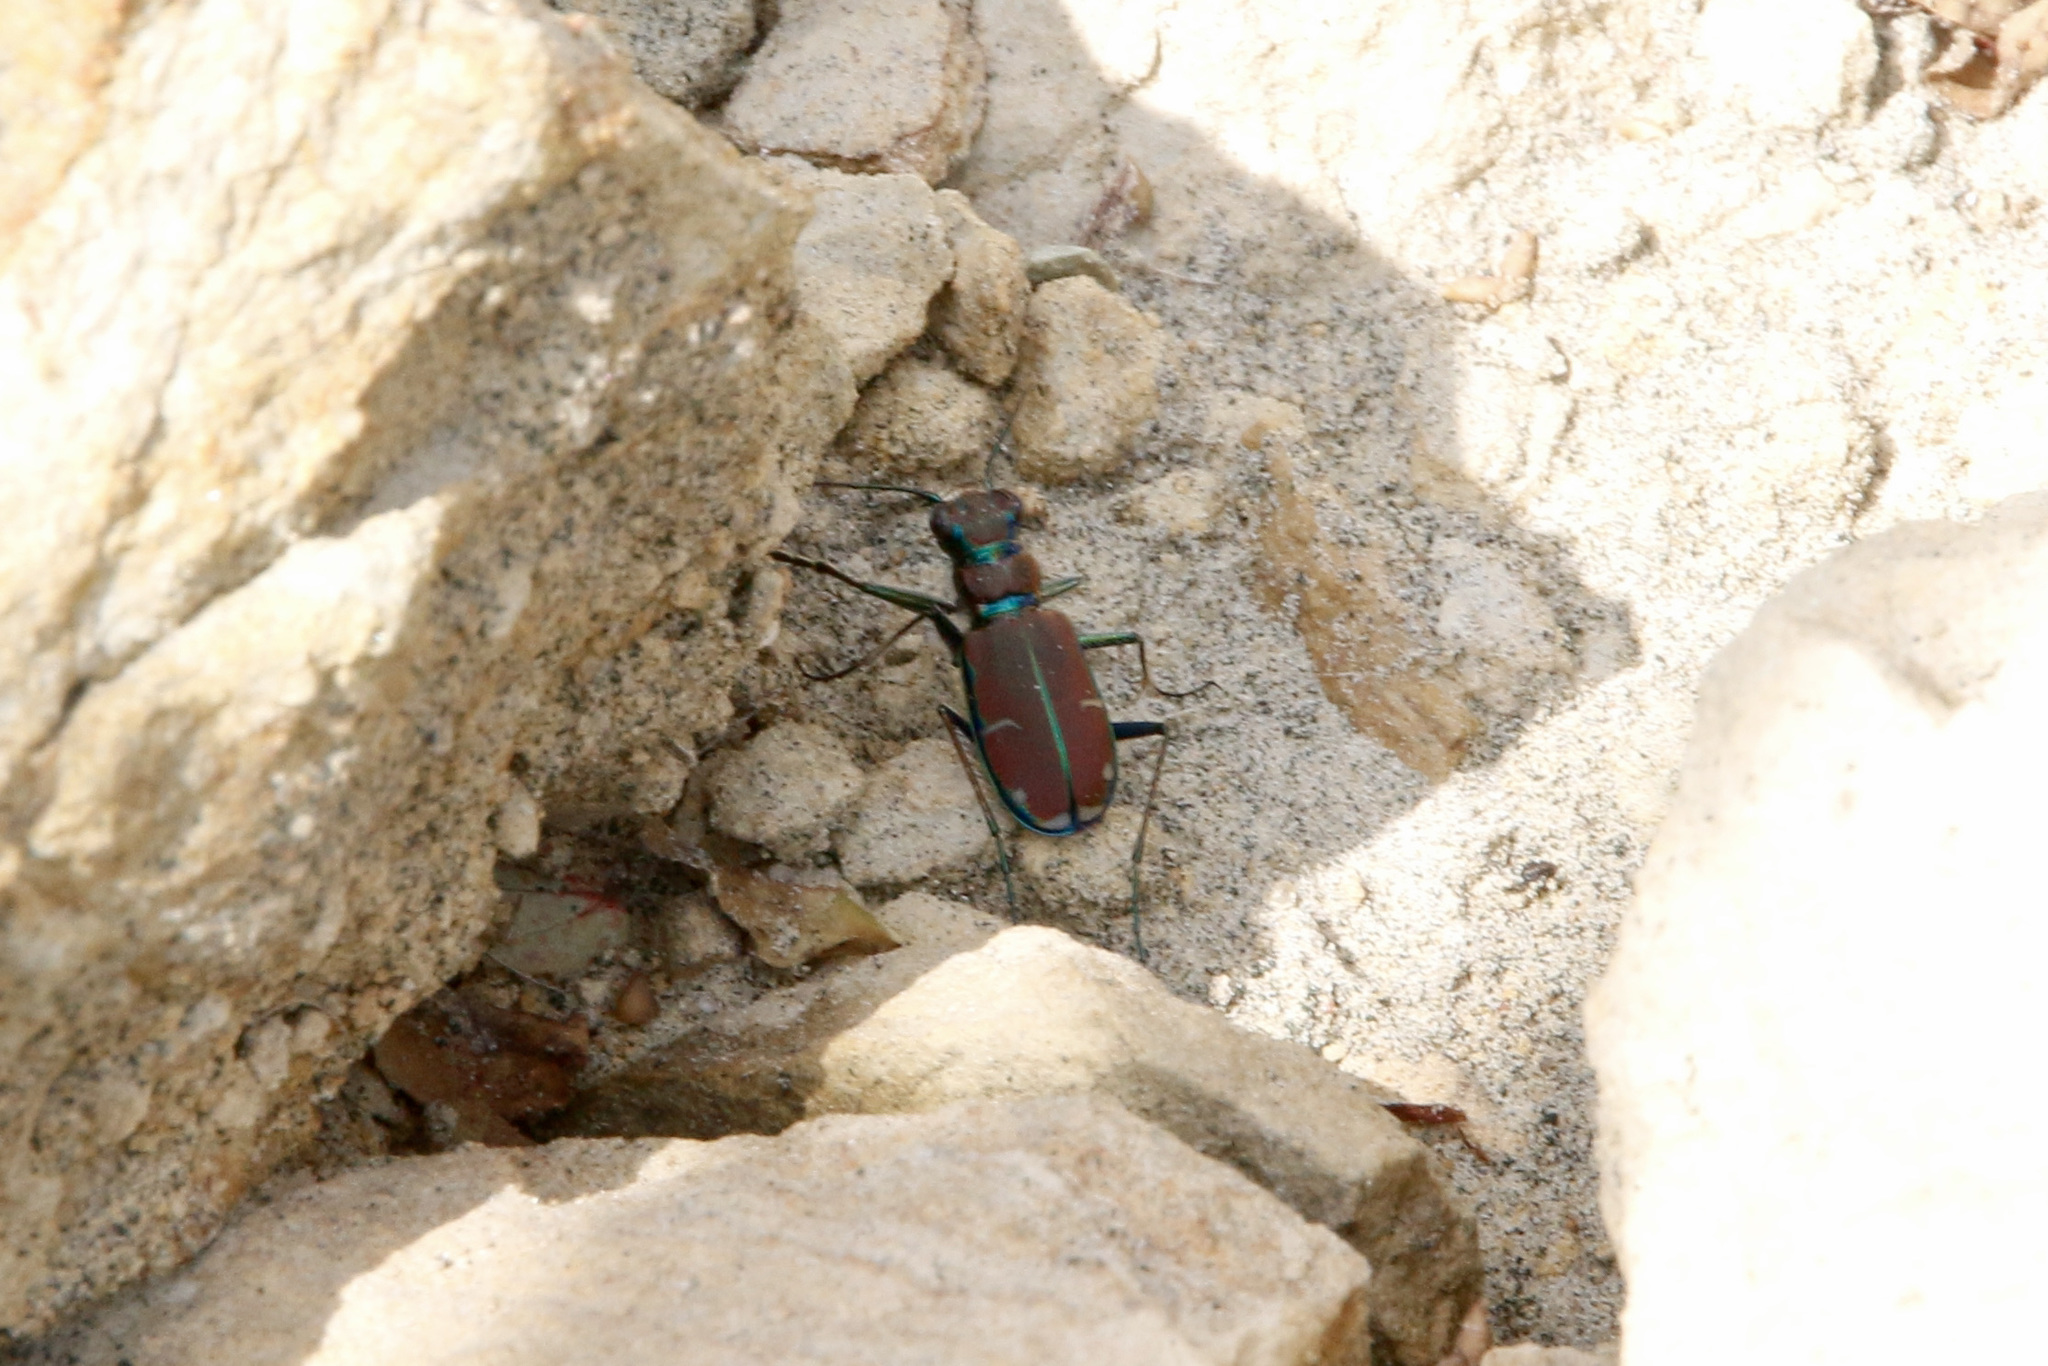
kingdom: Animalia
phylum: Arthropoda
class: Insecta
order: Coleoptera
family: Carabidae
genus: Cicindela
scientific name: Cicindela limbalis
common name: Common claybank tiger beetle
